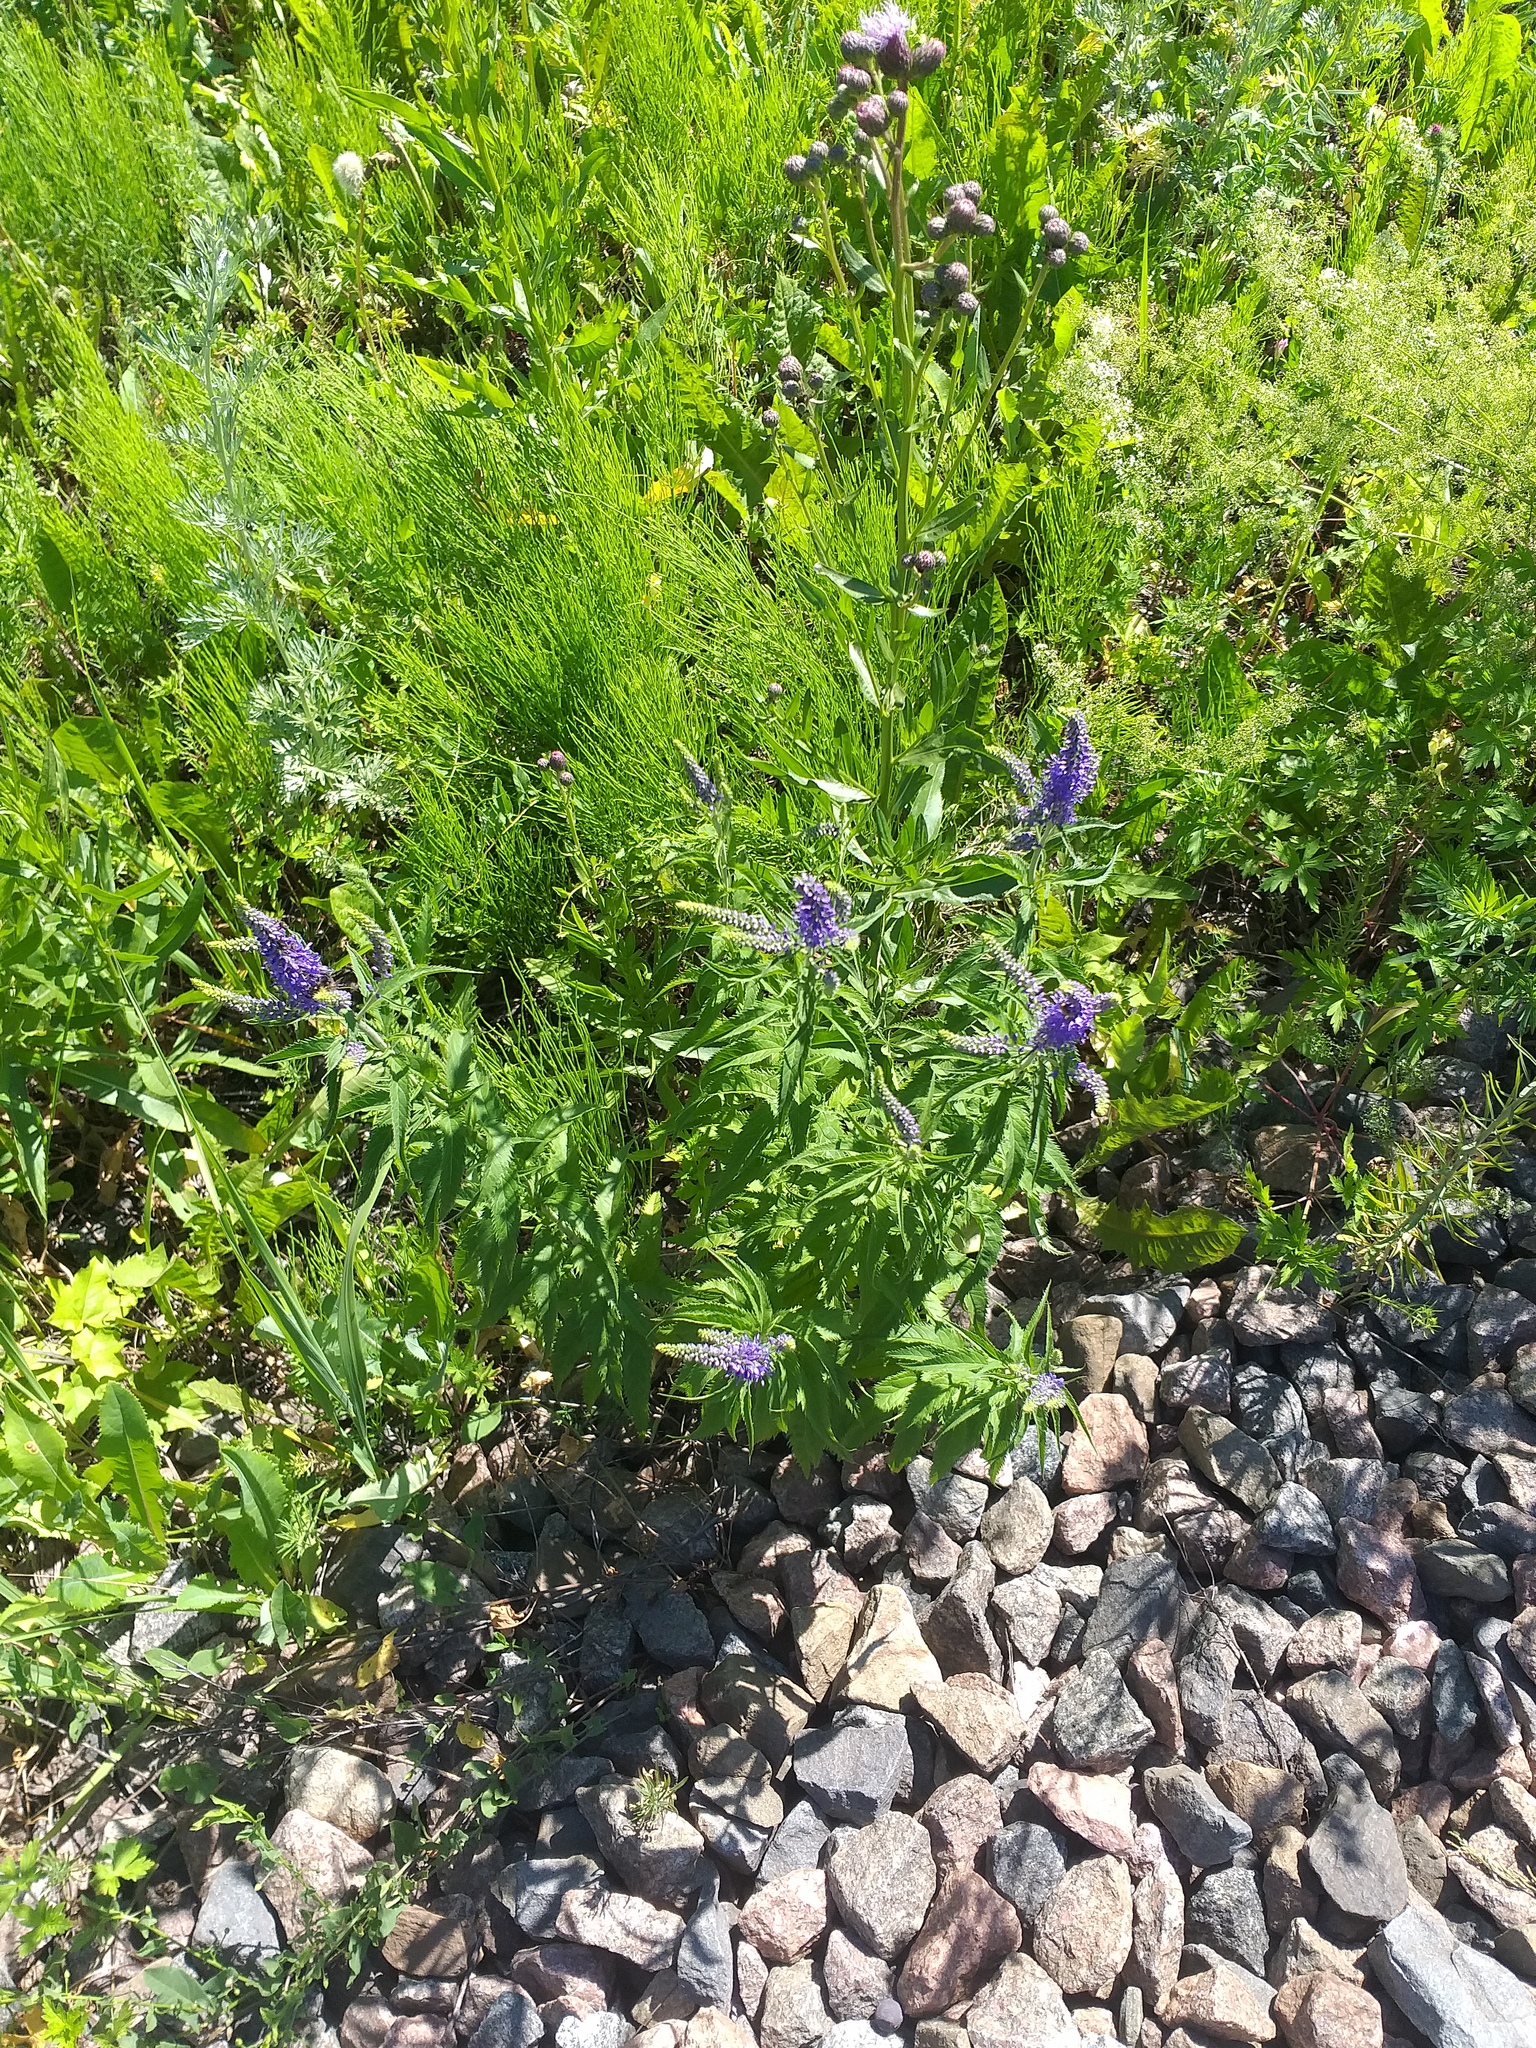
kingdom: Plantae
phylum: Tracheophyta
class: Magnoliopsida
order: Lamiales
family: Plantaginaceae
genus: Veronica
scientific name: Veronica longifolia
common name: Garden speedwell
